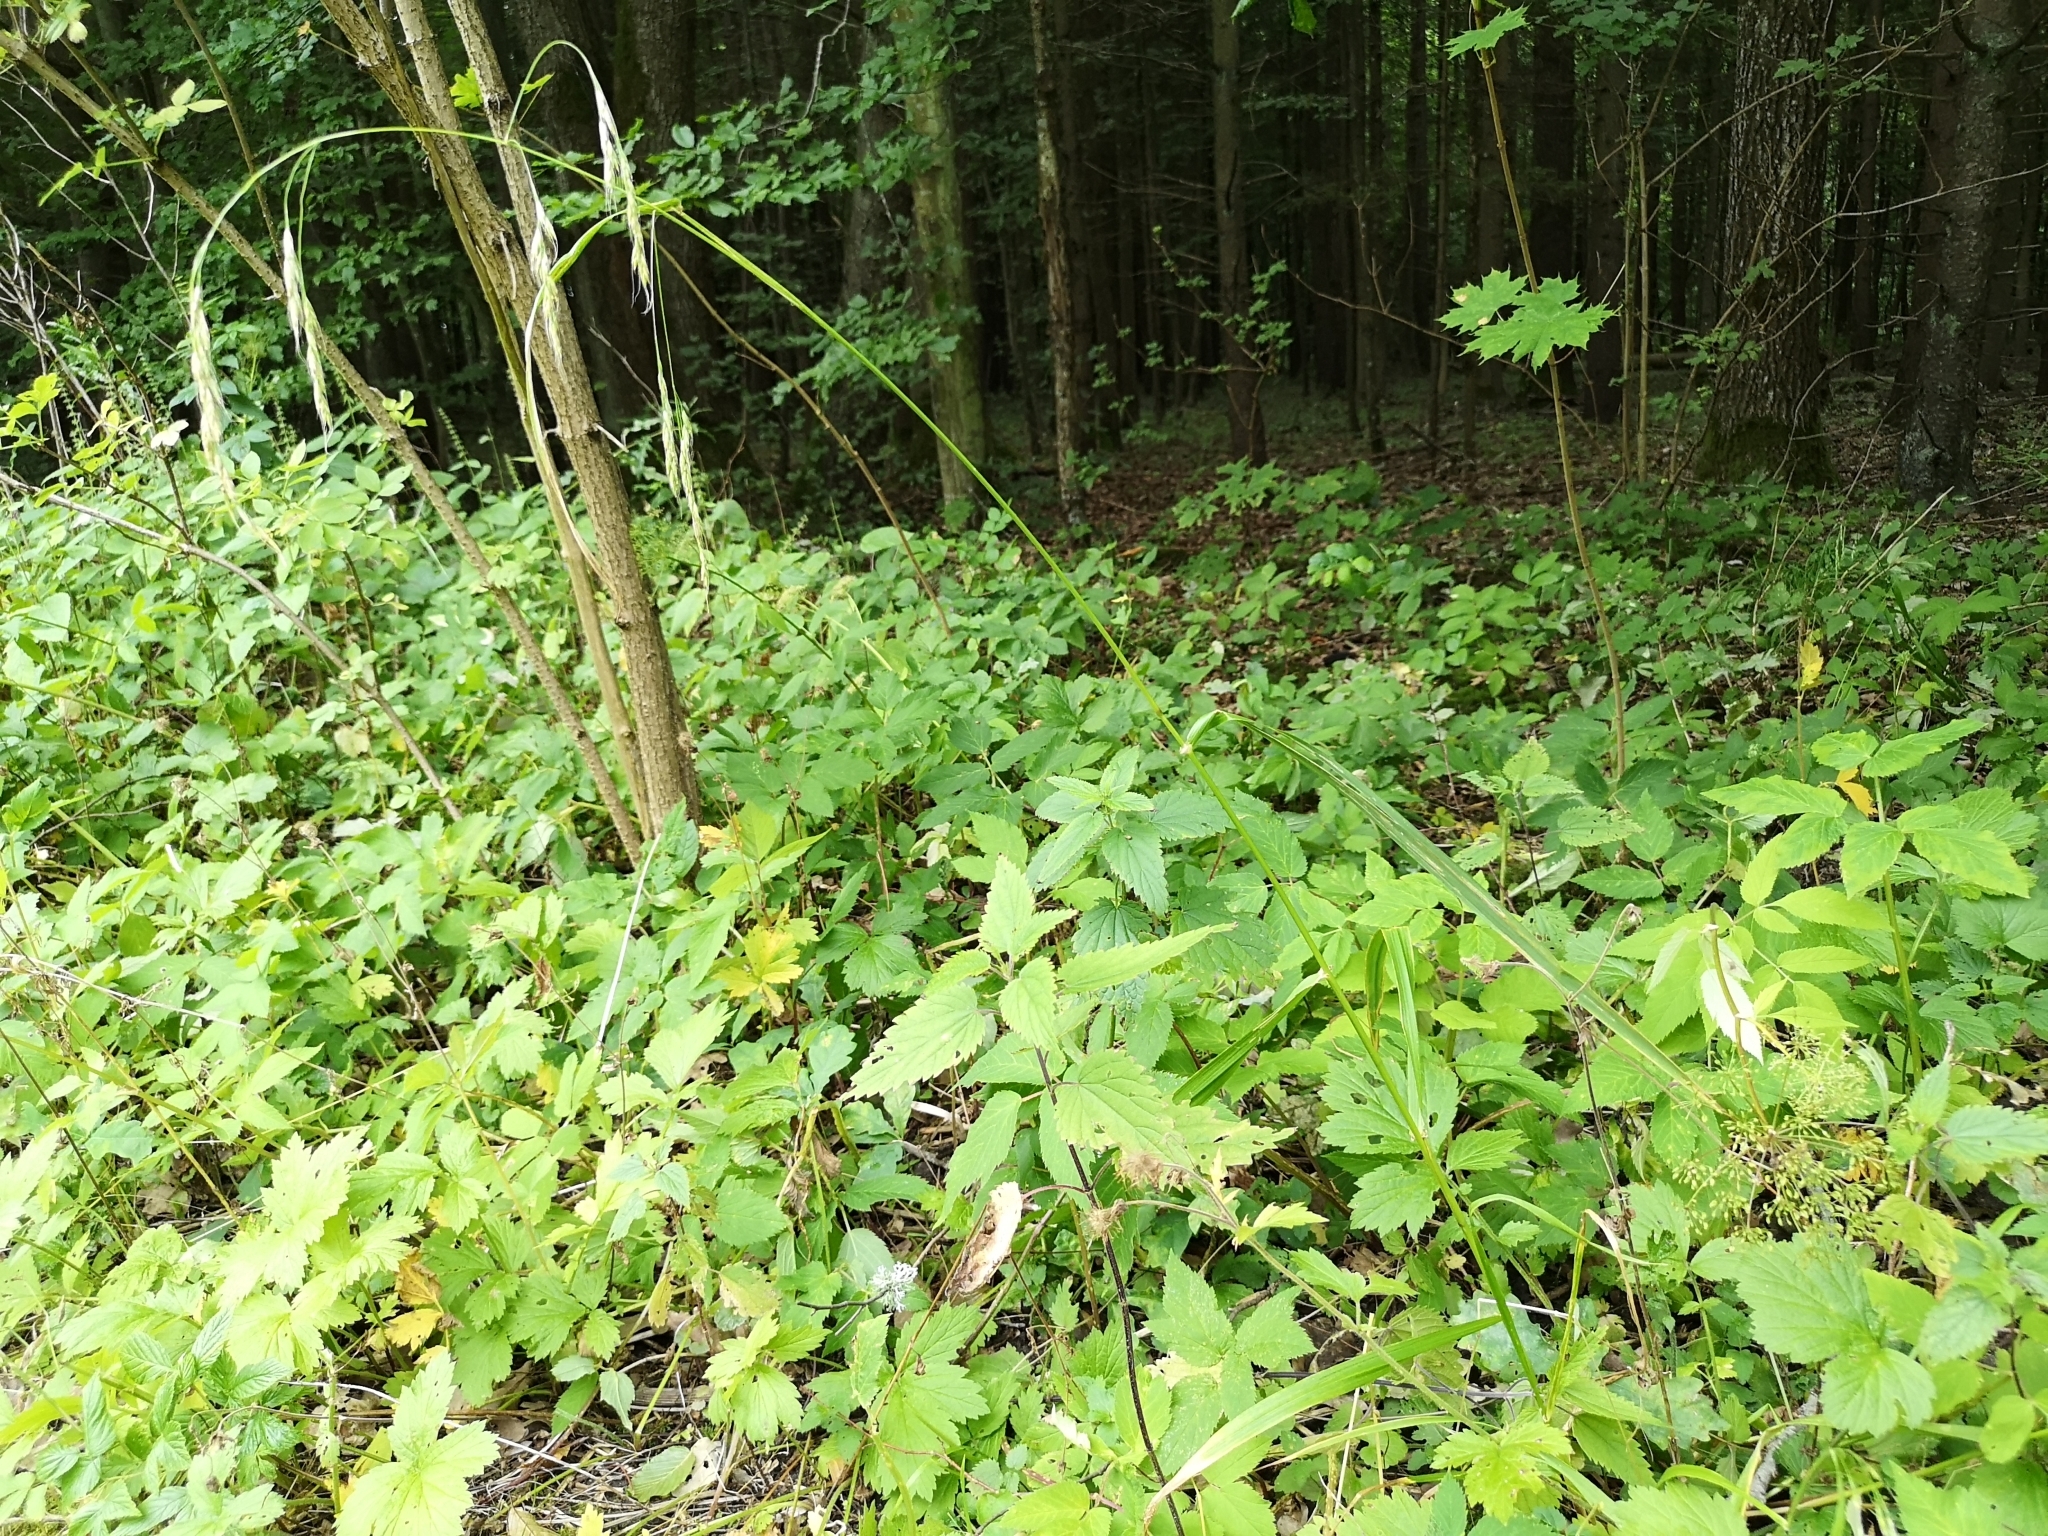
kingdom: Plantae
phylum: Tracheophyta
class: Liliopsida
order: Poales
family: Poaceae
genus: Lolium
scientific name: Lolium giganteum
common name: Giant fescue
